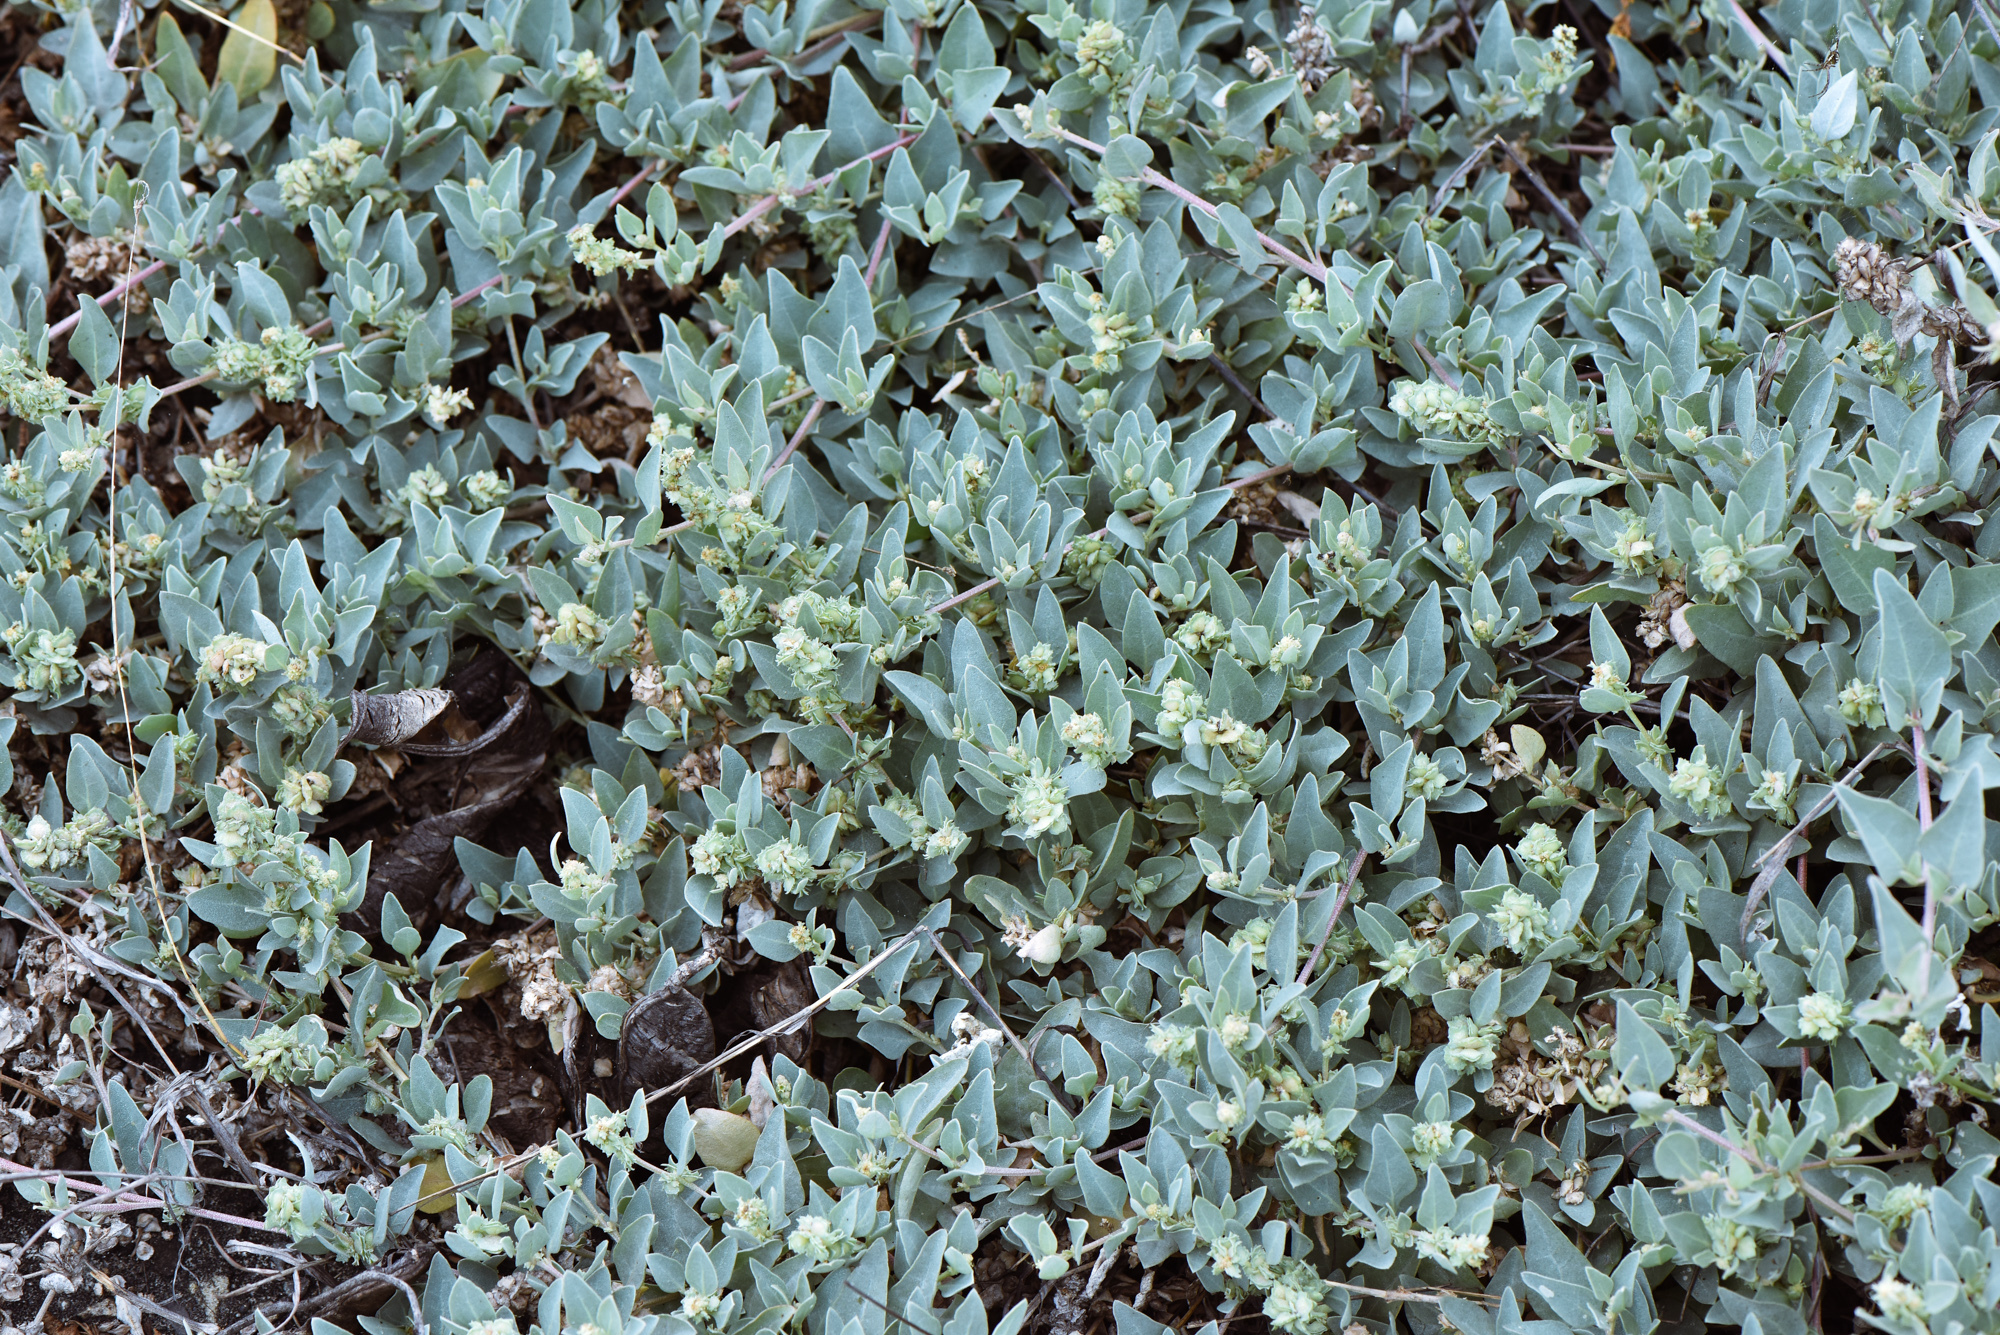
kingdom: Plantae
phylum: Tracheophyta
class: Magnoliopsida
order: Caryophyllales
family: Amaranthaceae
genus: Atriplex
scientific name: Atriplex maximowicziana
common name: Maximowicz's saltbush
